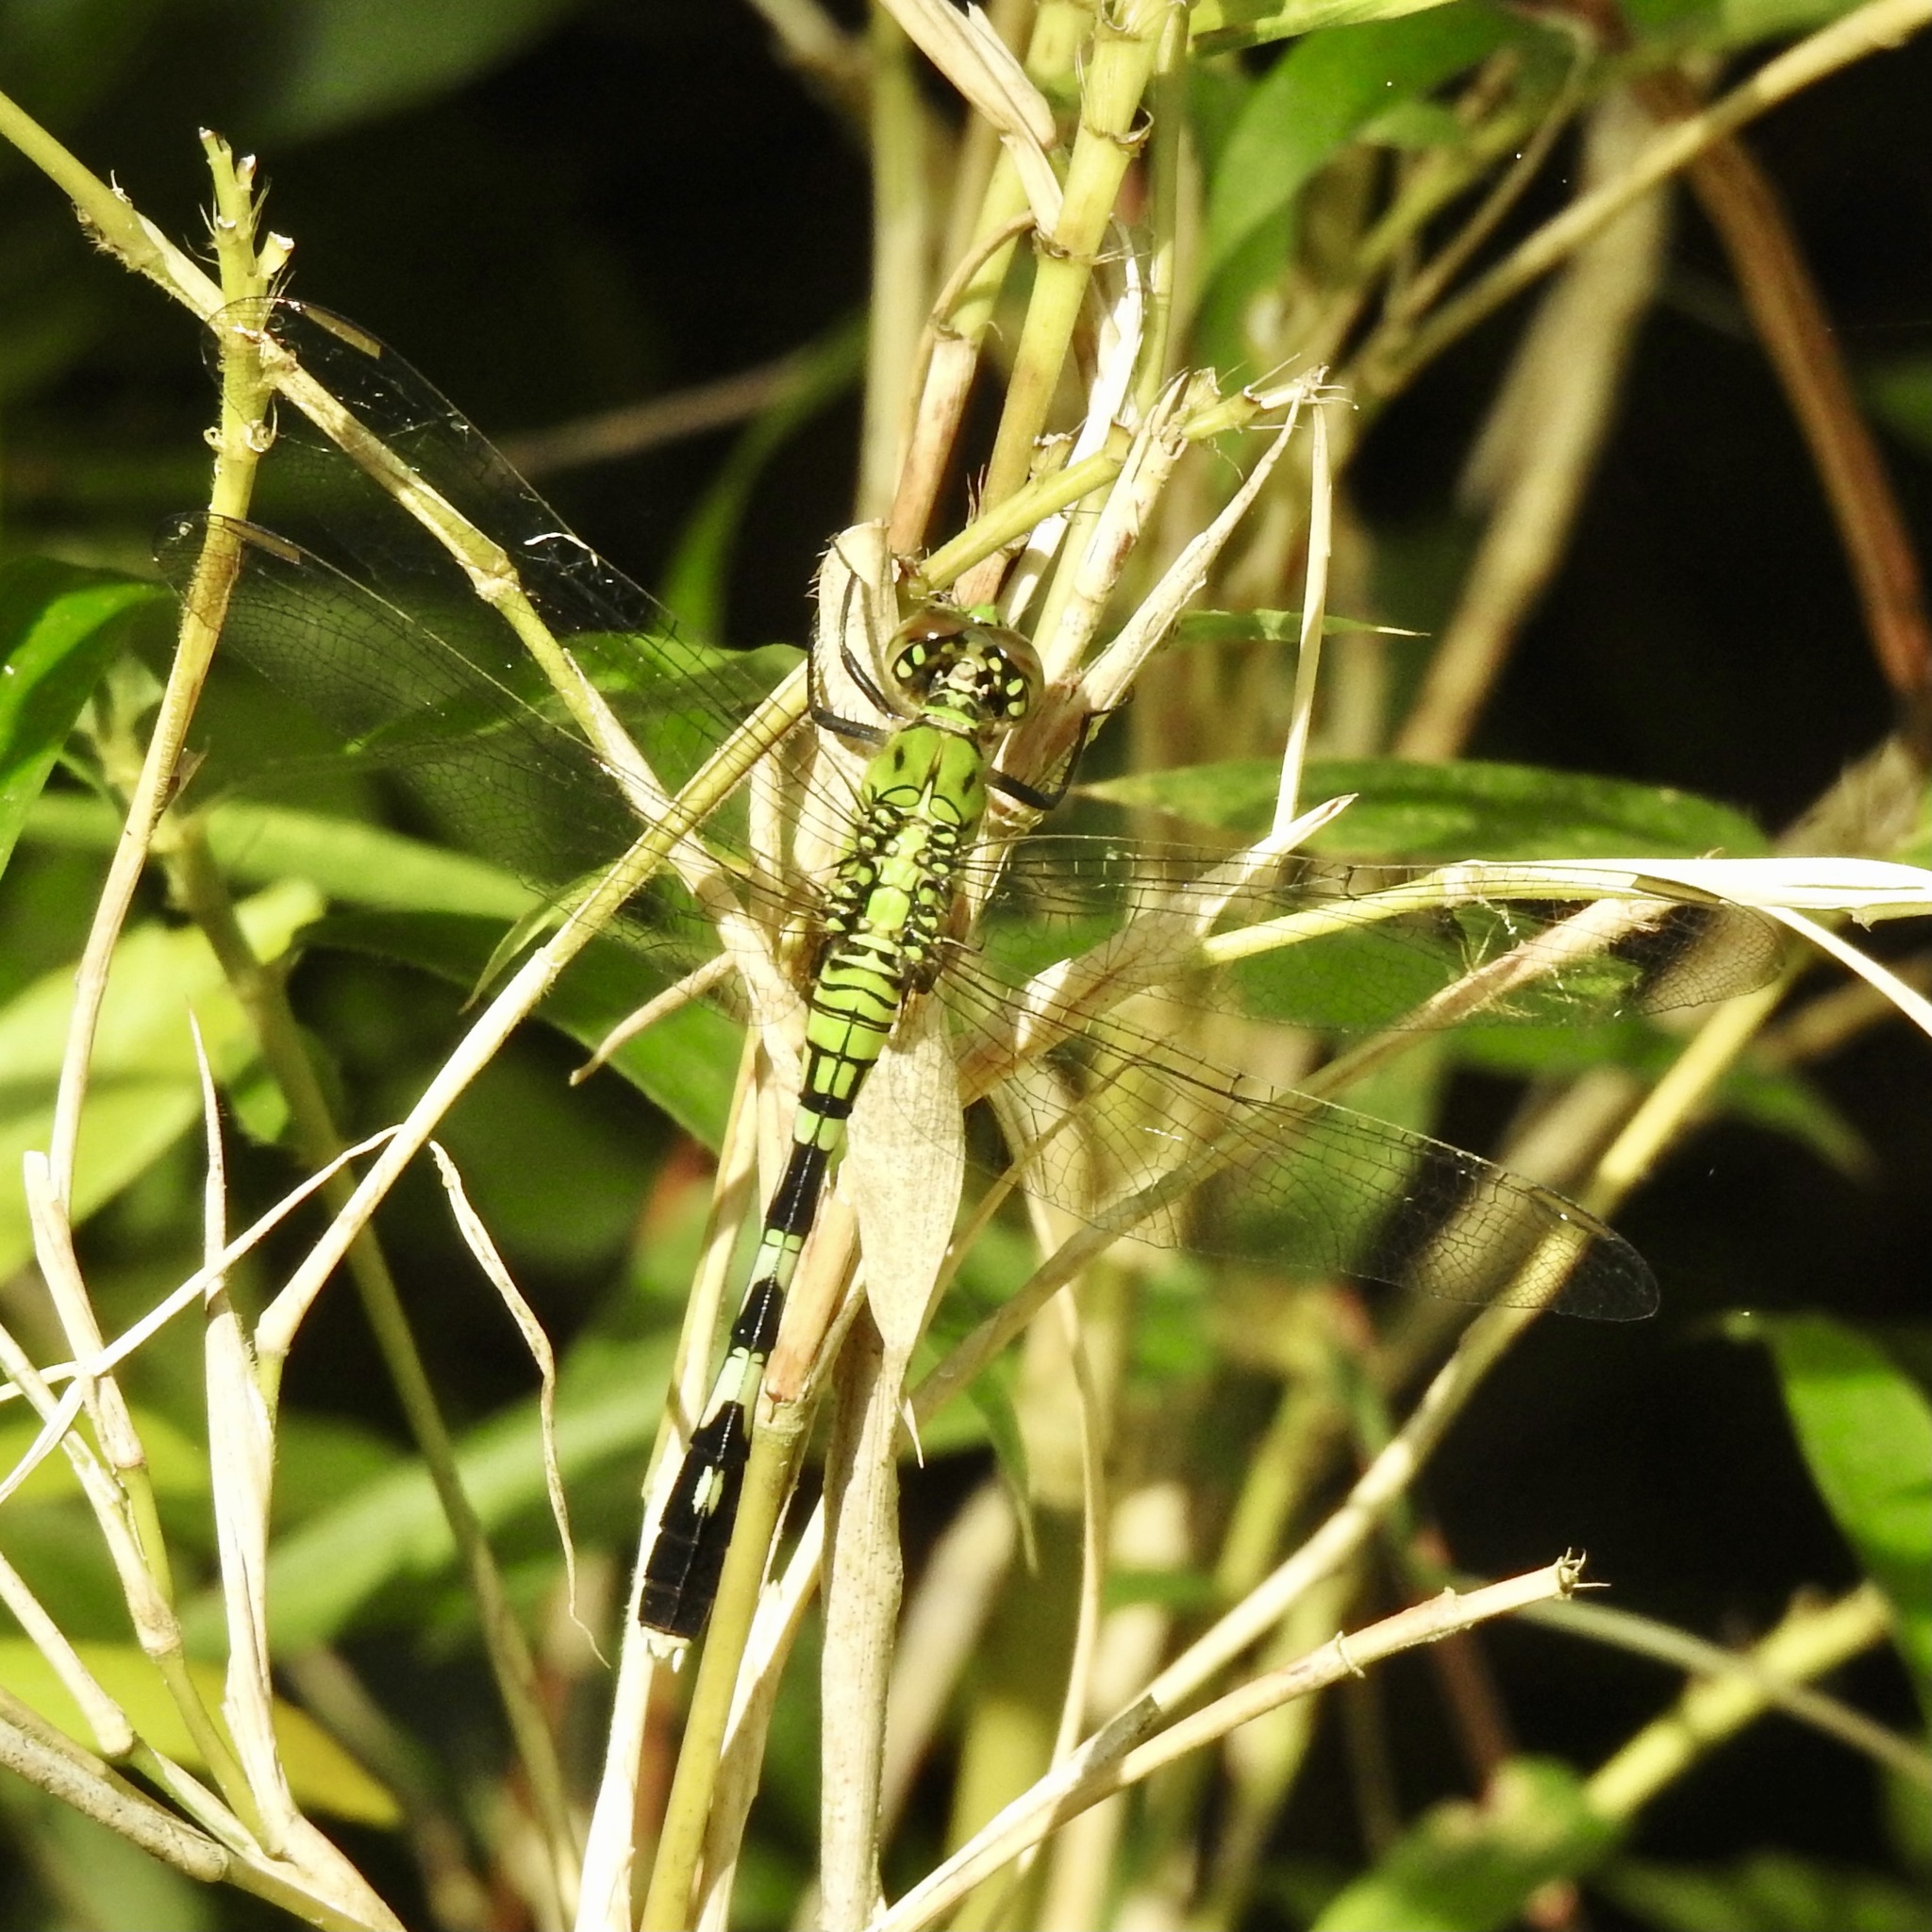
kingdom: Animalia
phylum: Arthropoda
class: Insecta
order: Odonata
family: Libellulidae
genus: Erythemis
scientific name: Erythemis simplicicollis
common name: Eastern pondhawk
